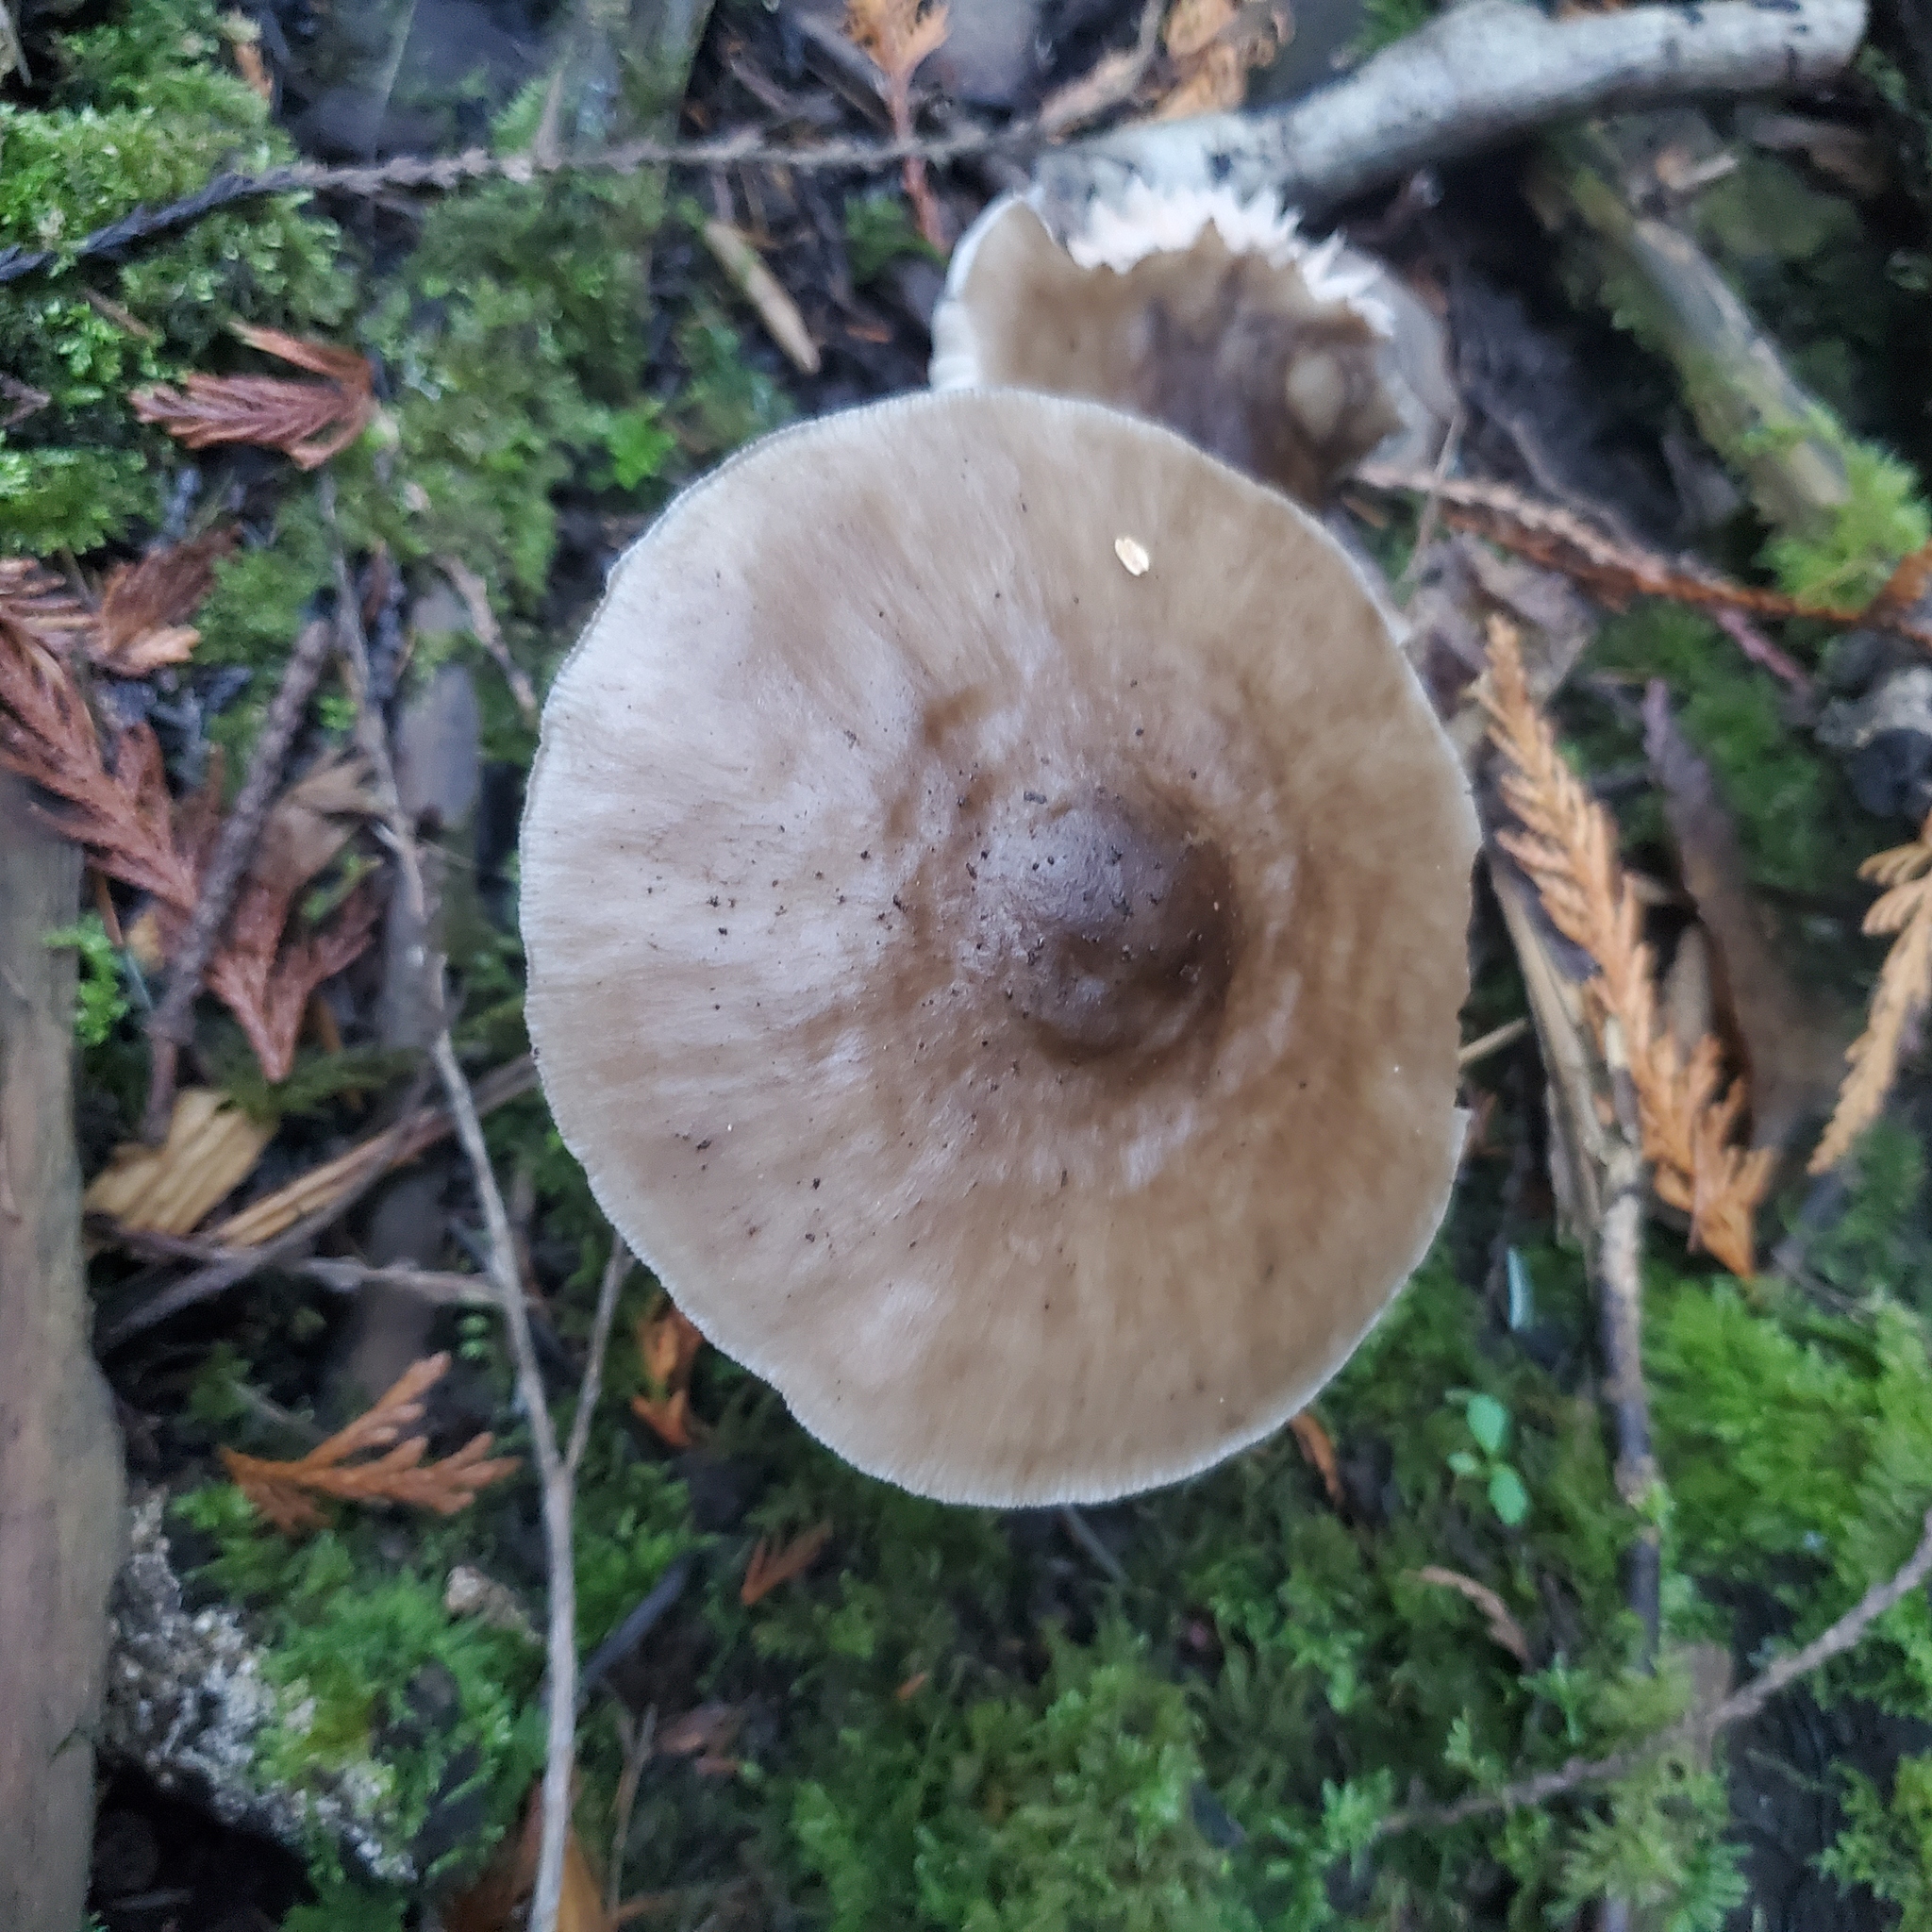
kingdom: Fungi
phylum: Basidiomycota
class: Agaricomycetes
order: Agaricales
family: Pluteaceae
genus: Pluteus
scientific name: Pluteus exilis
